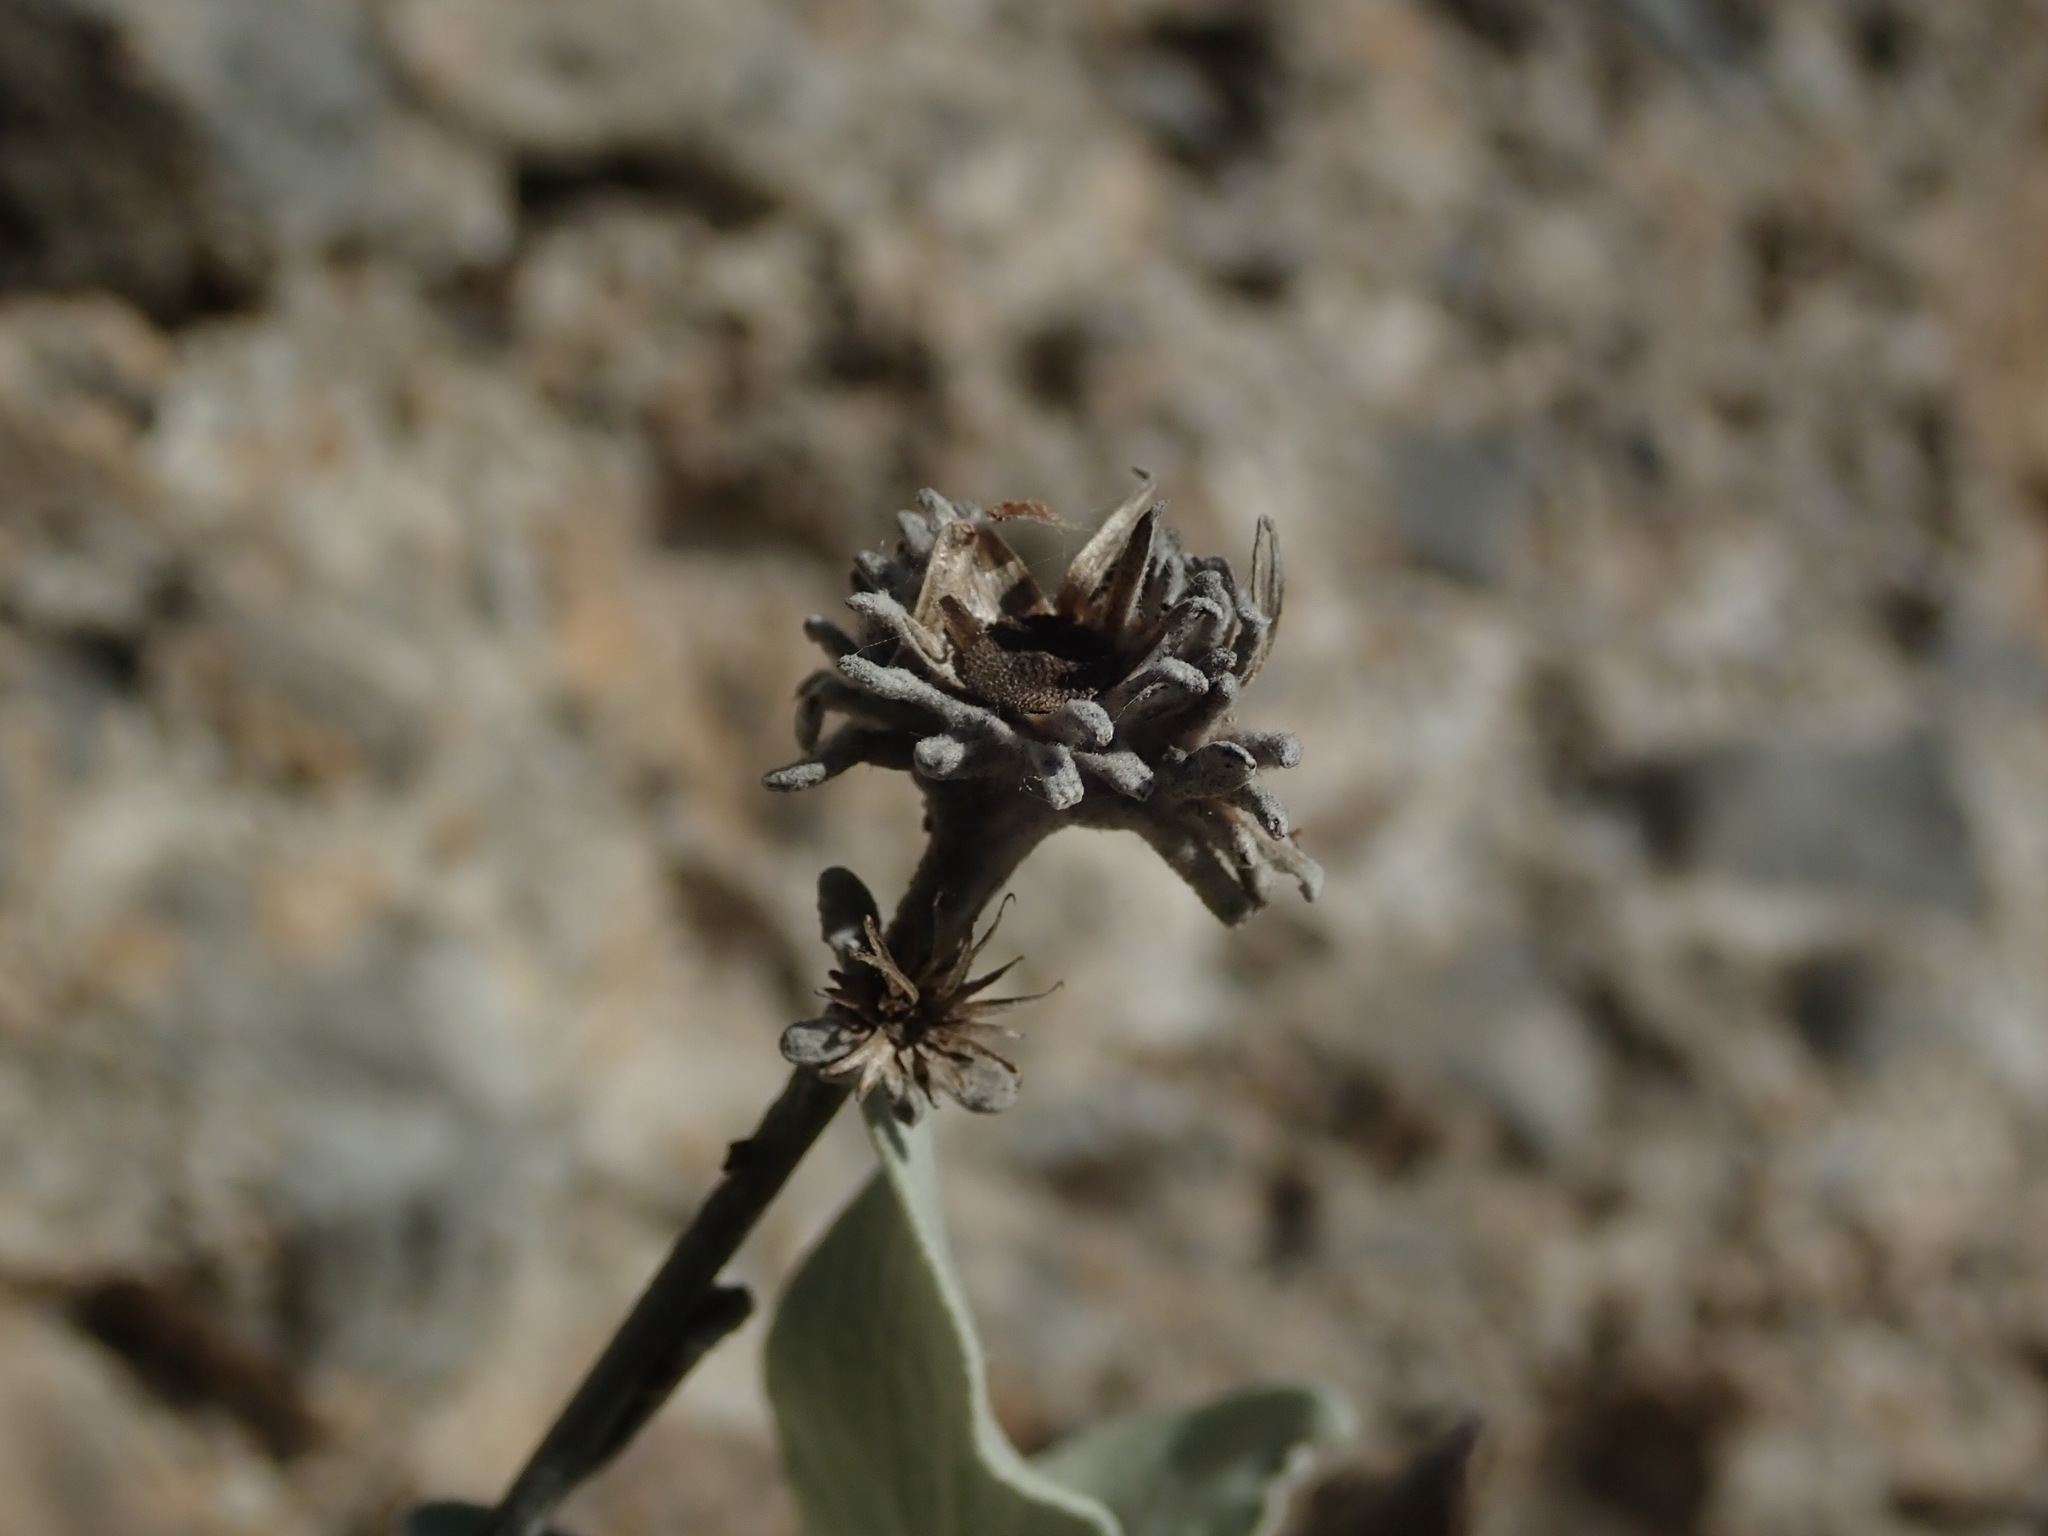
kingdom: Plantae
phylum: Tracheophyta
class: Magnoliopsida
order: Asterales
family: Asteraceae
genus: Pentanema
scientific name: Pentanema verbascifolium
